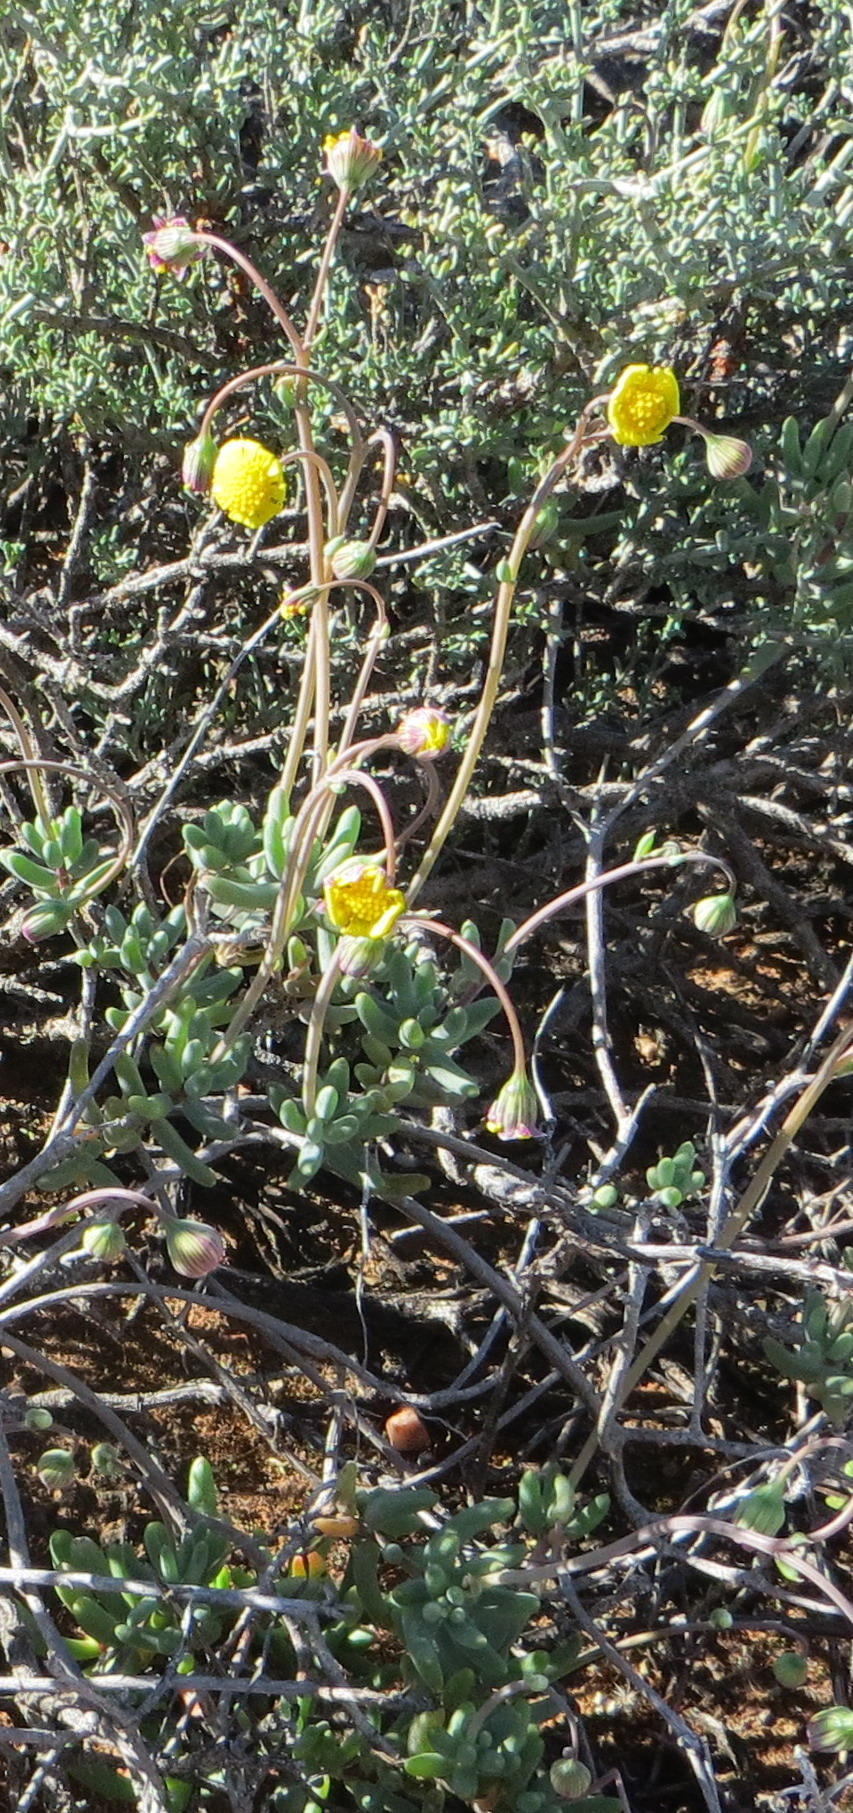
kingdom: Plantae
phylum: Tracheophyta
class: Magnoliopsida
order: Asterales
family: Asteraceae
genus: Crassothonna
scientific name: Crassothonna cacalioides
